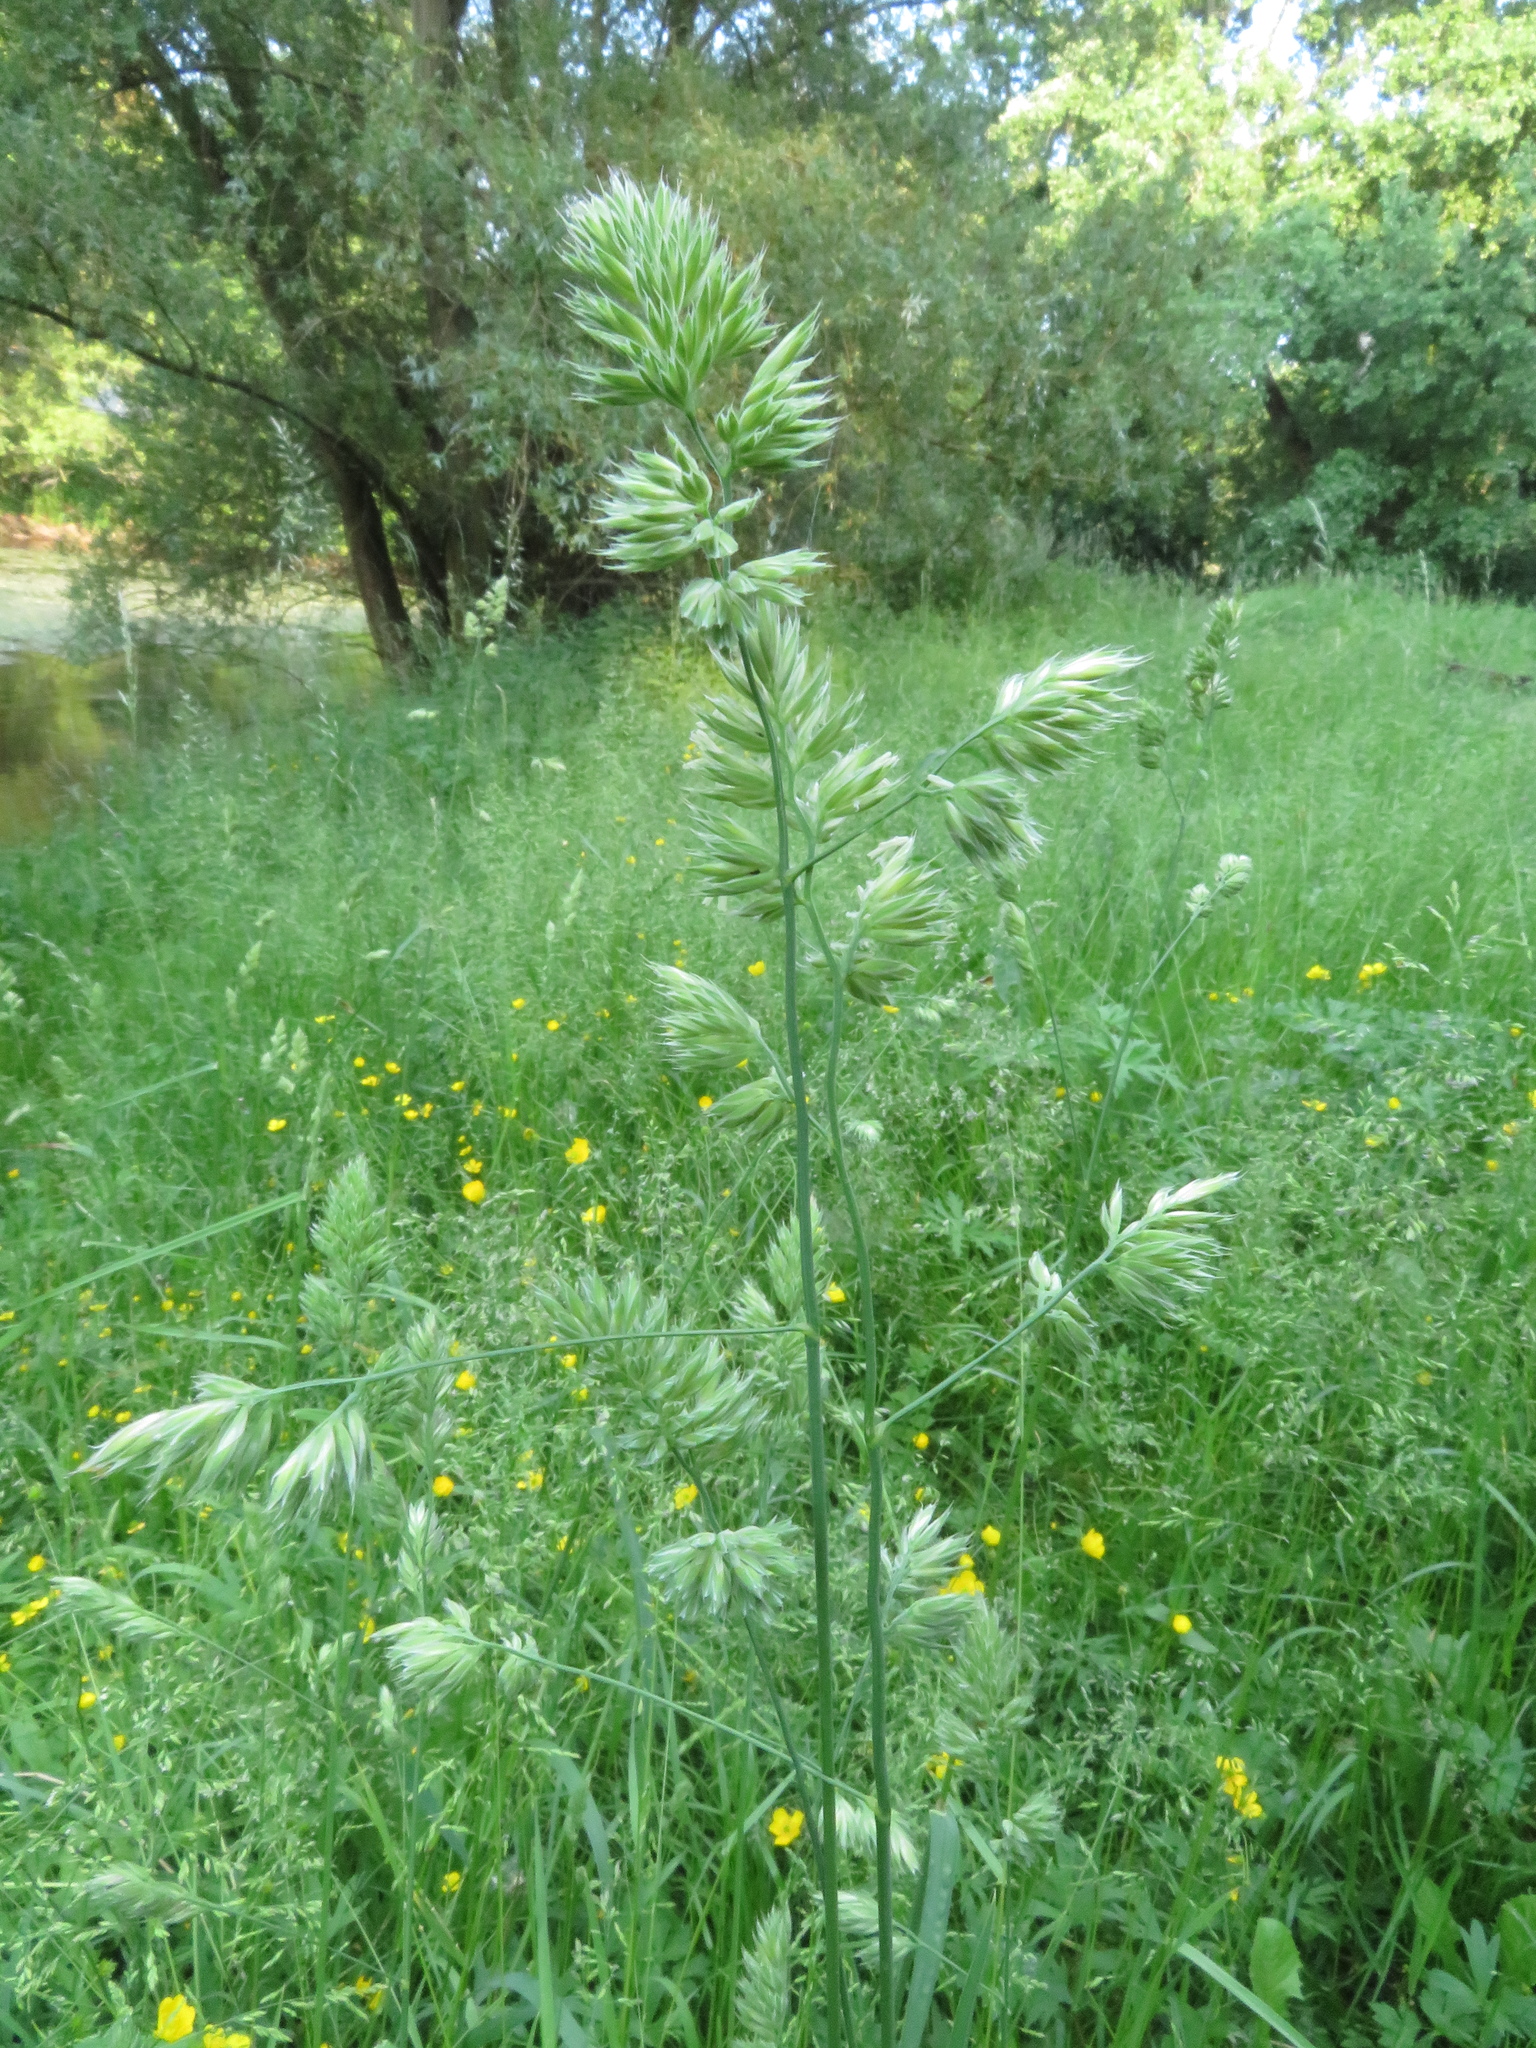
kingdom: Plantae
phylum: Tracheophyta
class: Liliopsida
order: Poales
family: Poaceae
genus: Dactylis
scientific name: Dactylis glomerata
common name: Orchardgrass
